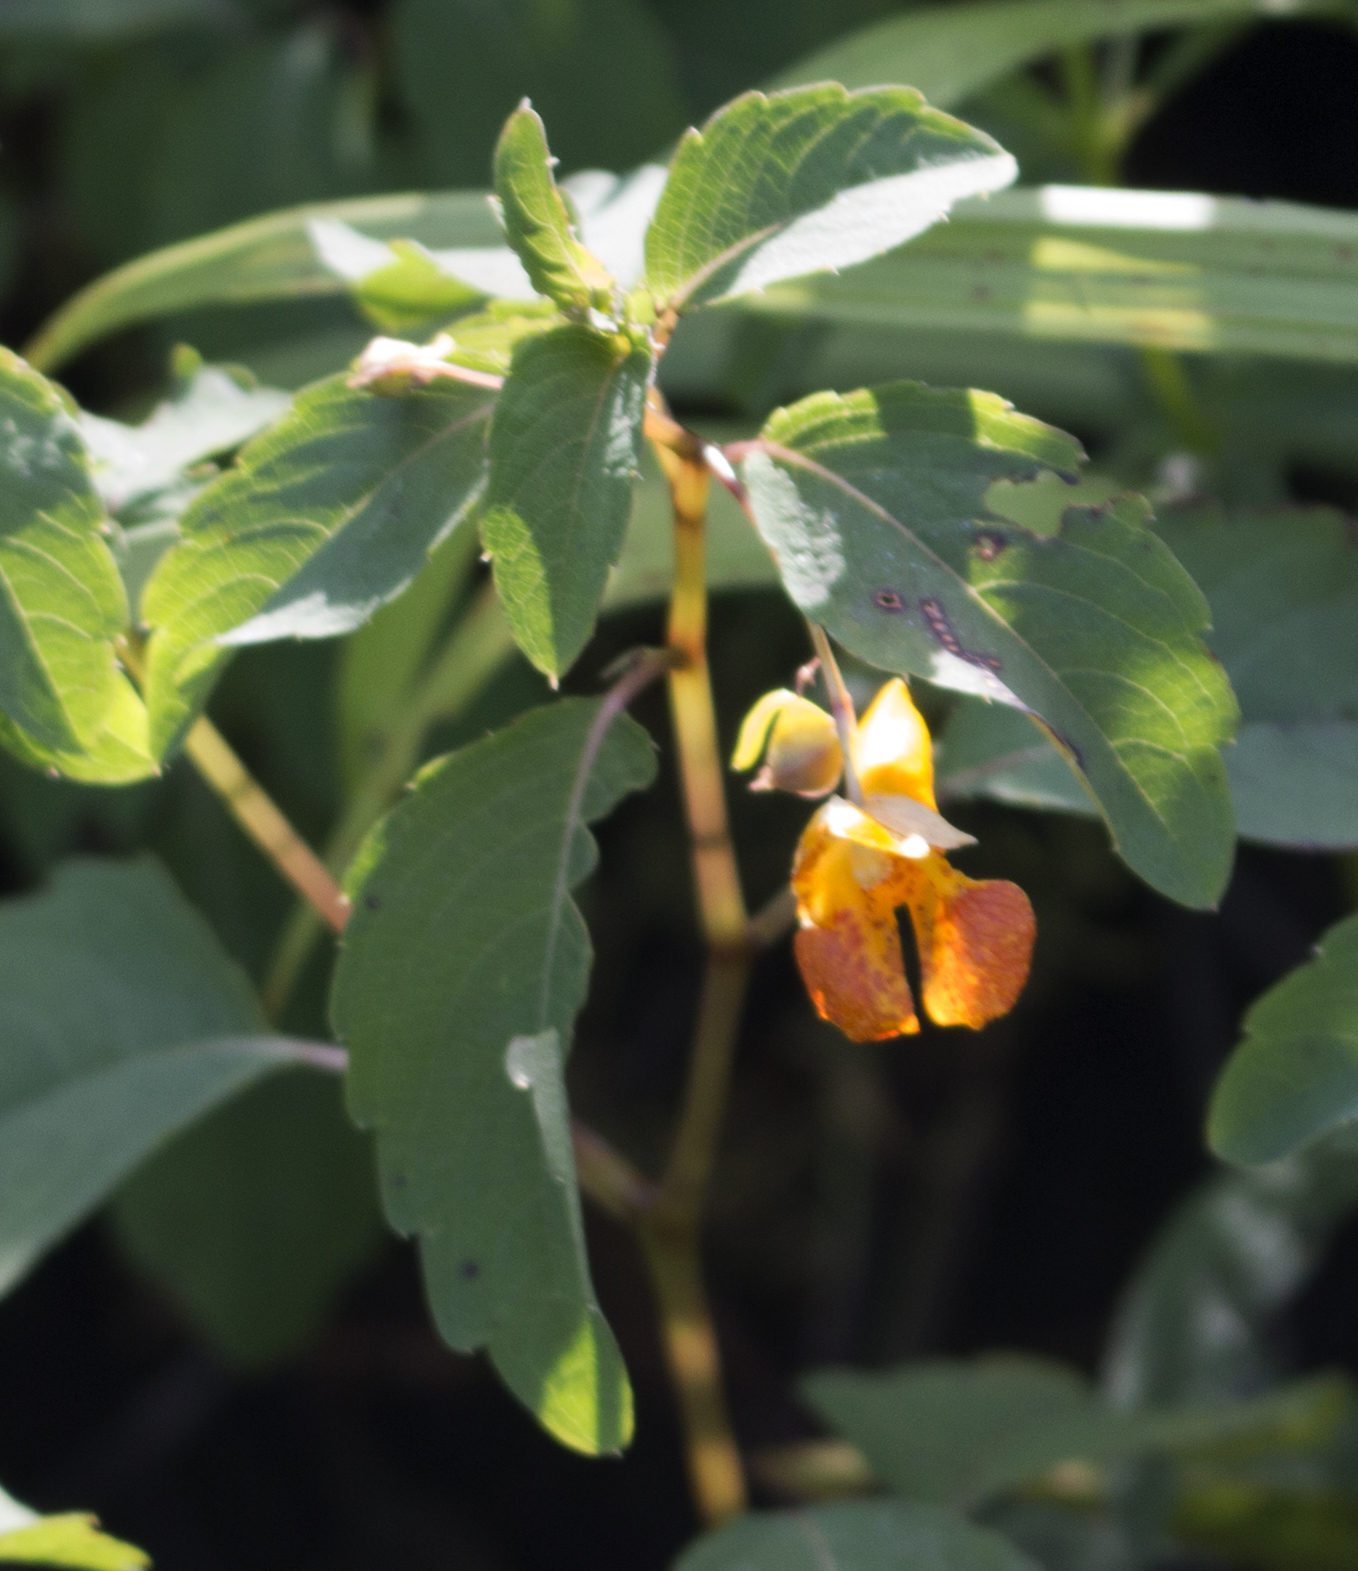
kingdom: Plantae
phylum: Tracheophyta
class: Magnoliopsida
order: Ericales
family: Balsaminaceae
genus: Impatiens
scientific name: Impatiens capensis
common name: Orange balsam
